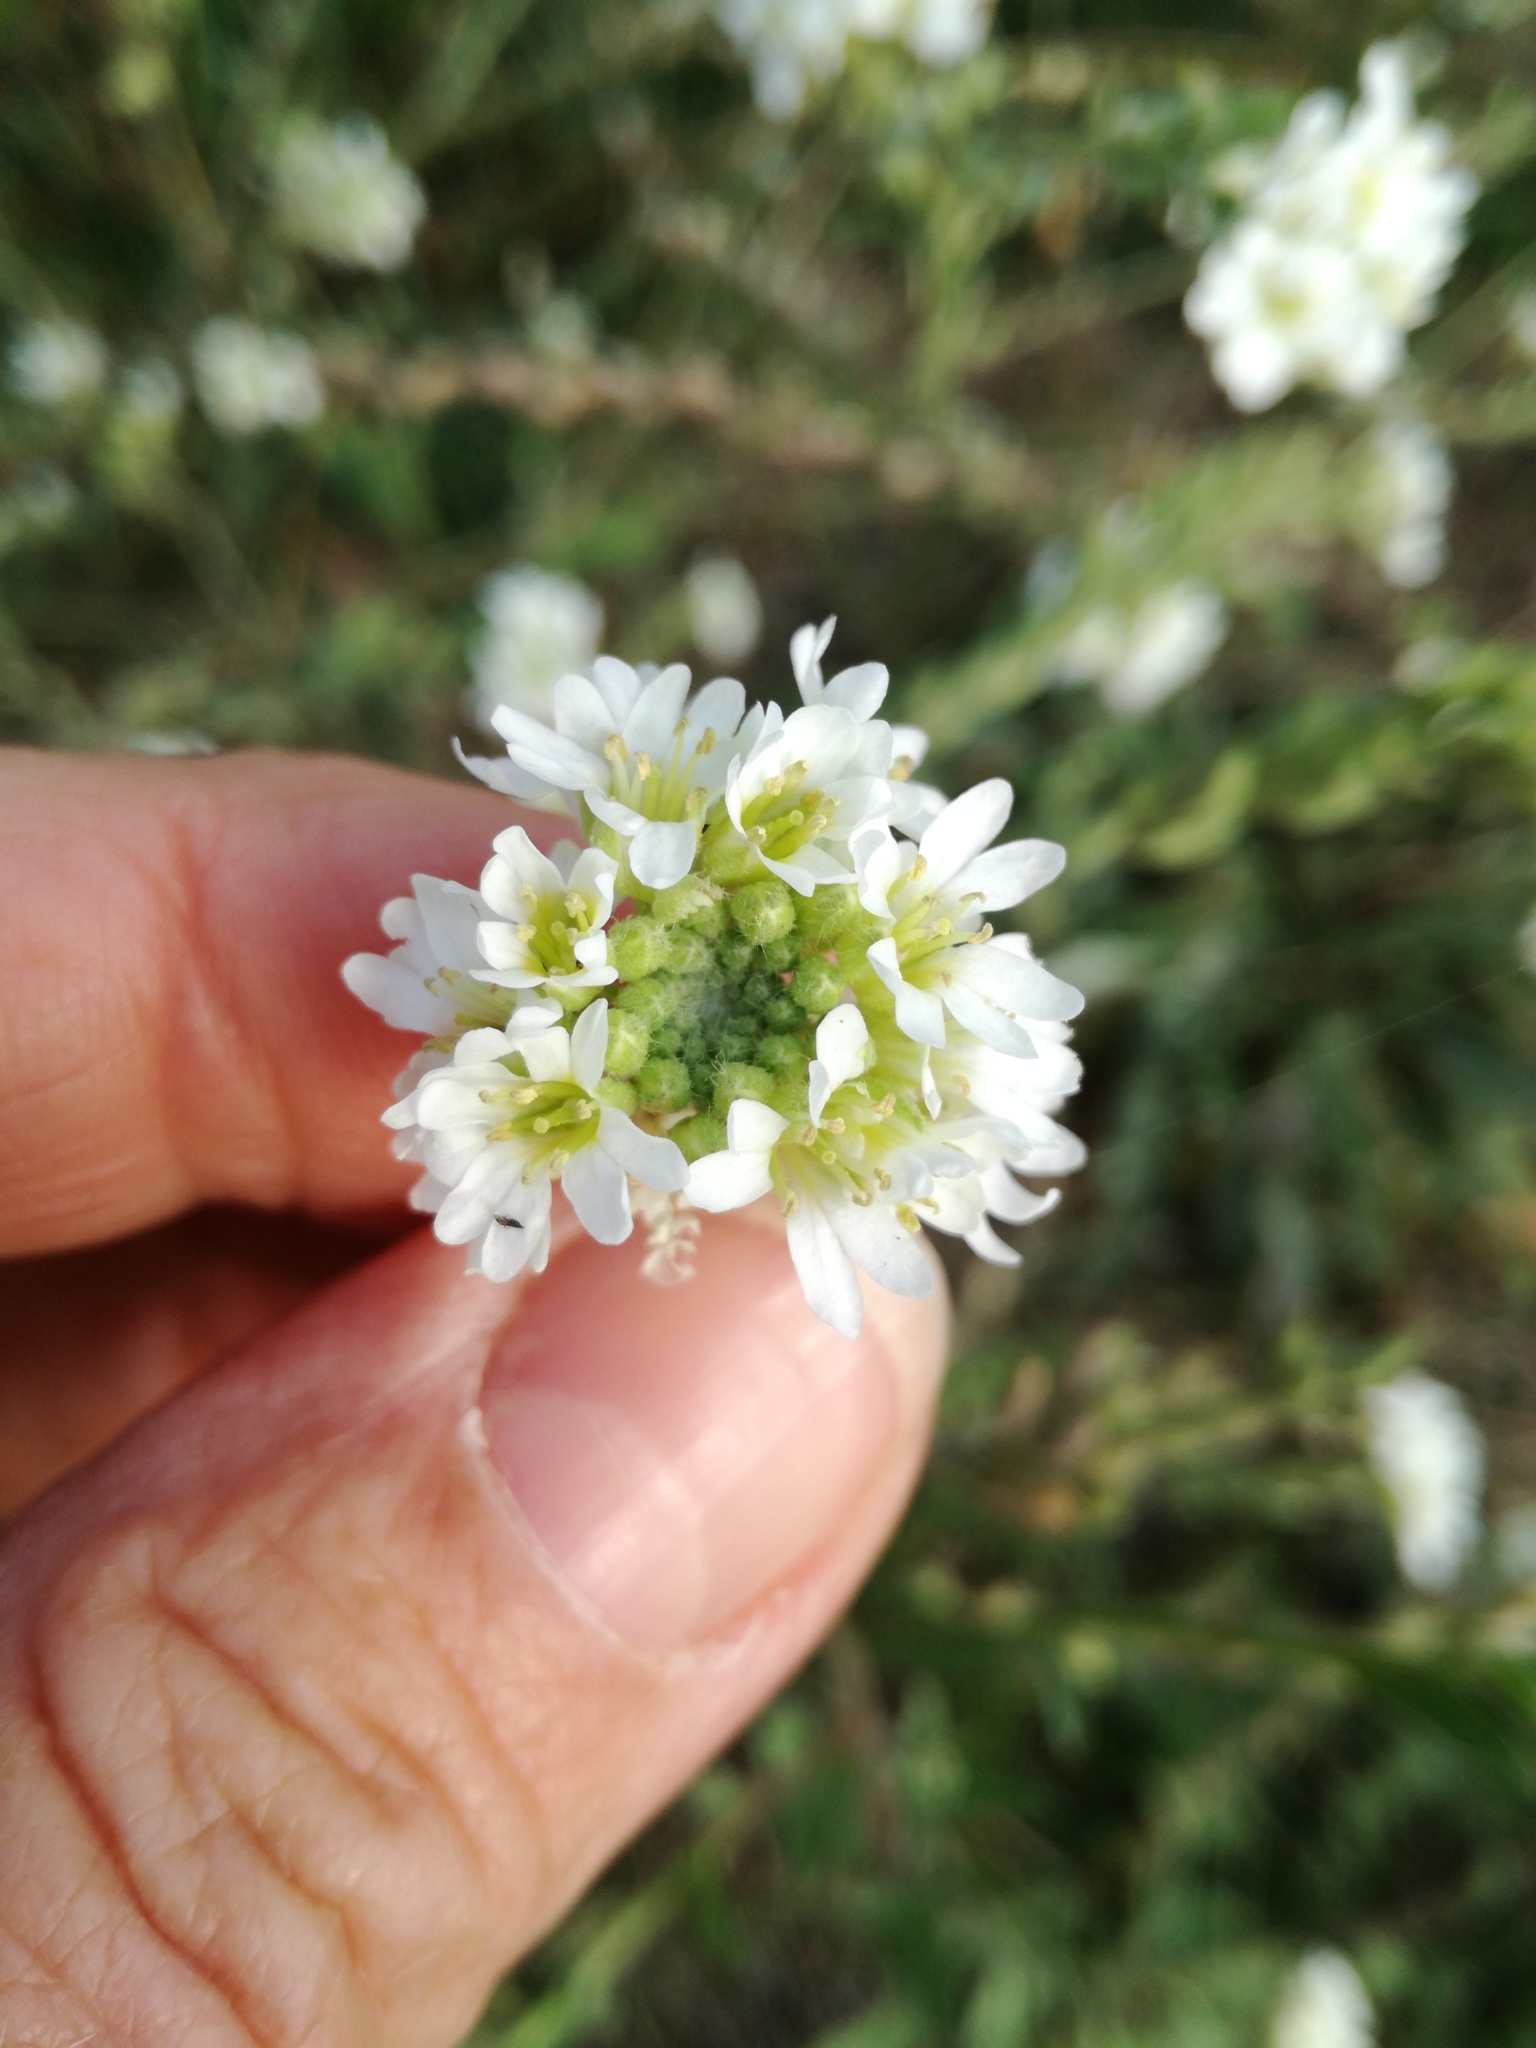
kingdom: Plantae
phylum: Tracheophyta
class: Magnoliopsida
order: Brassicales
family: Brassicaceae
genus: Berteroa
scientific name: Berteroa incana
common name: Hoary alison
